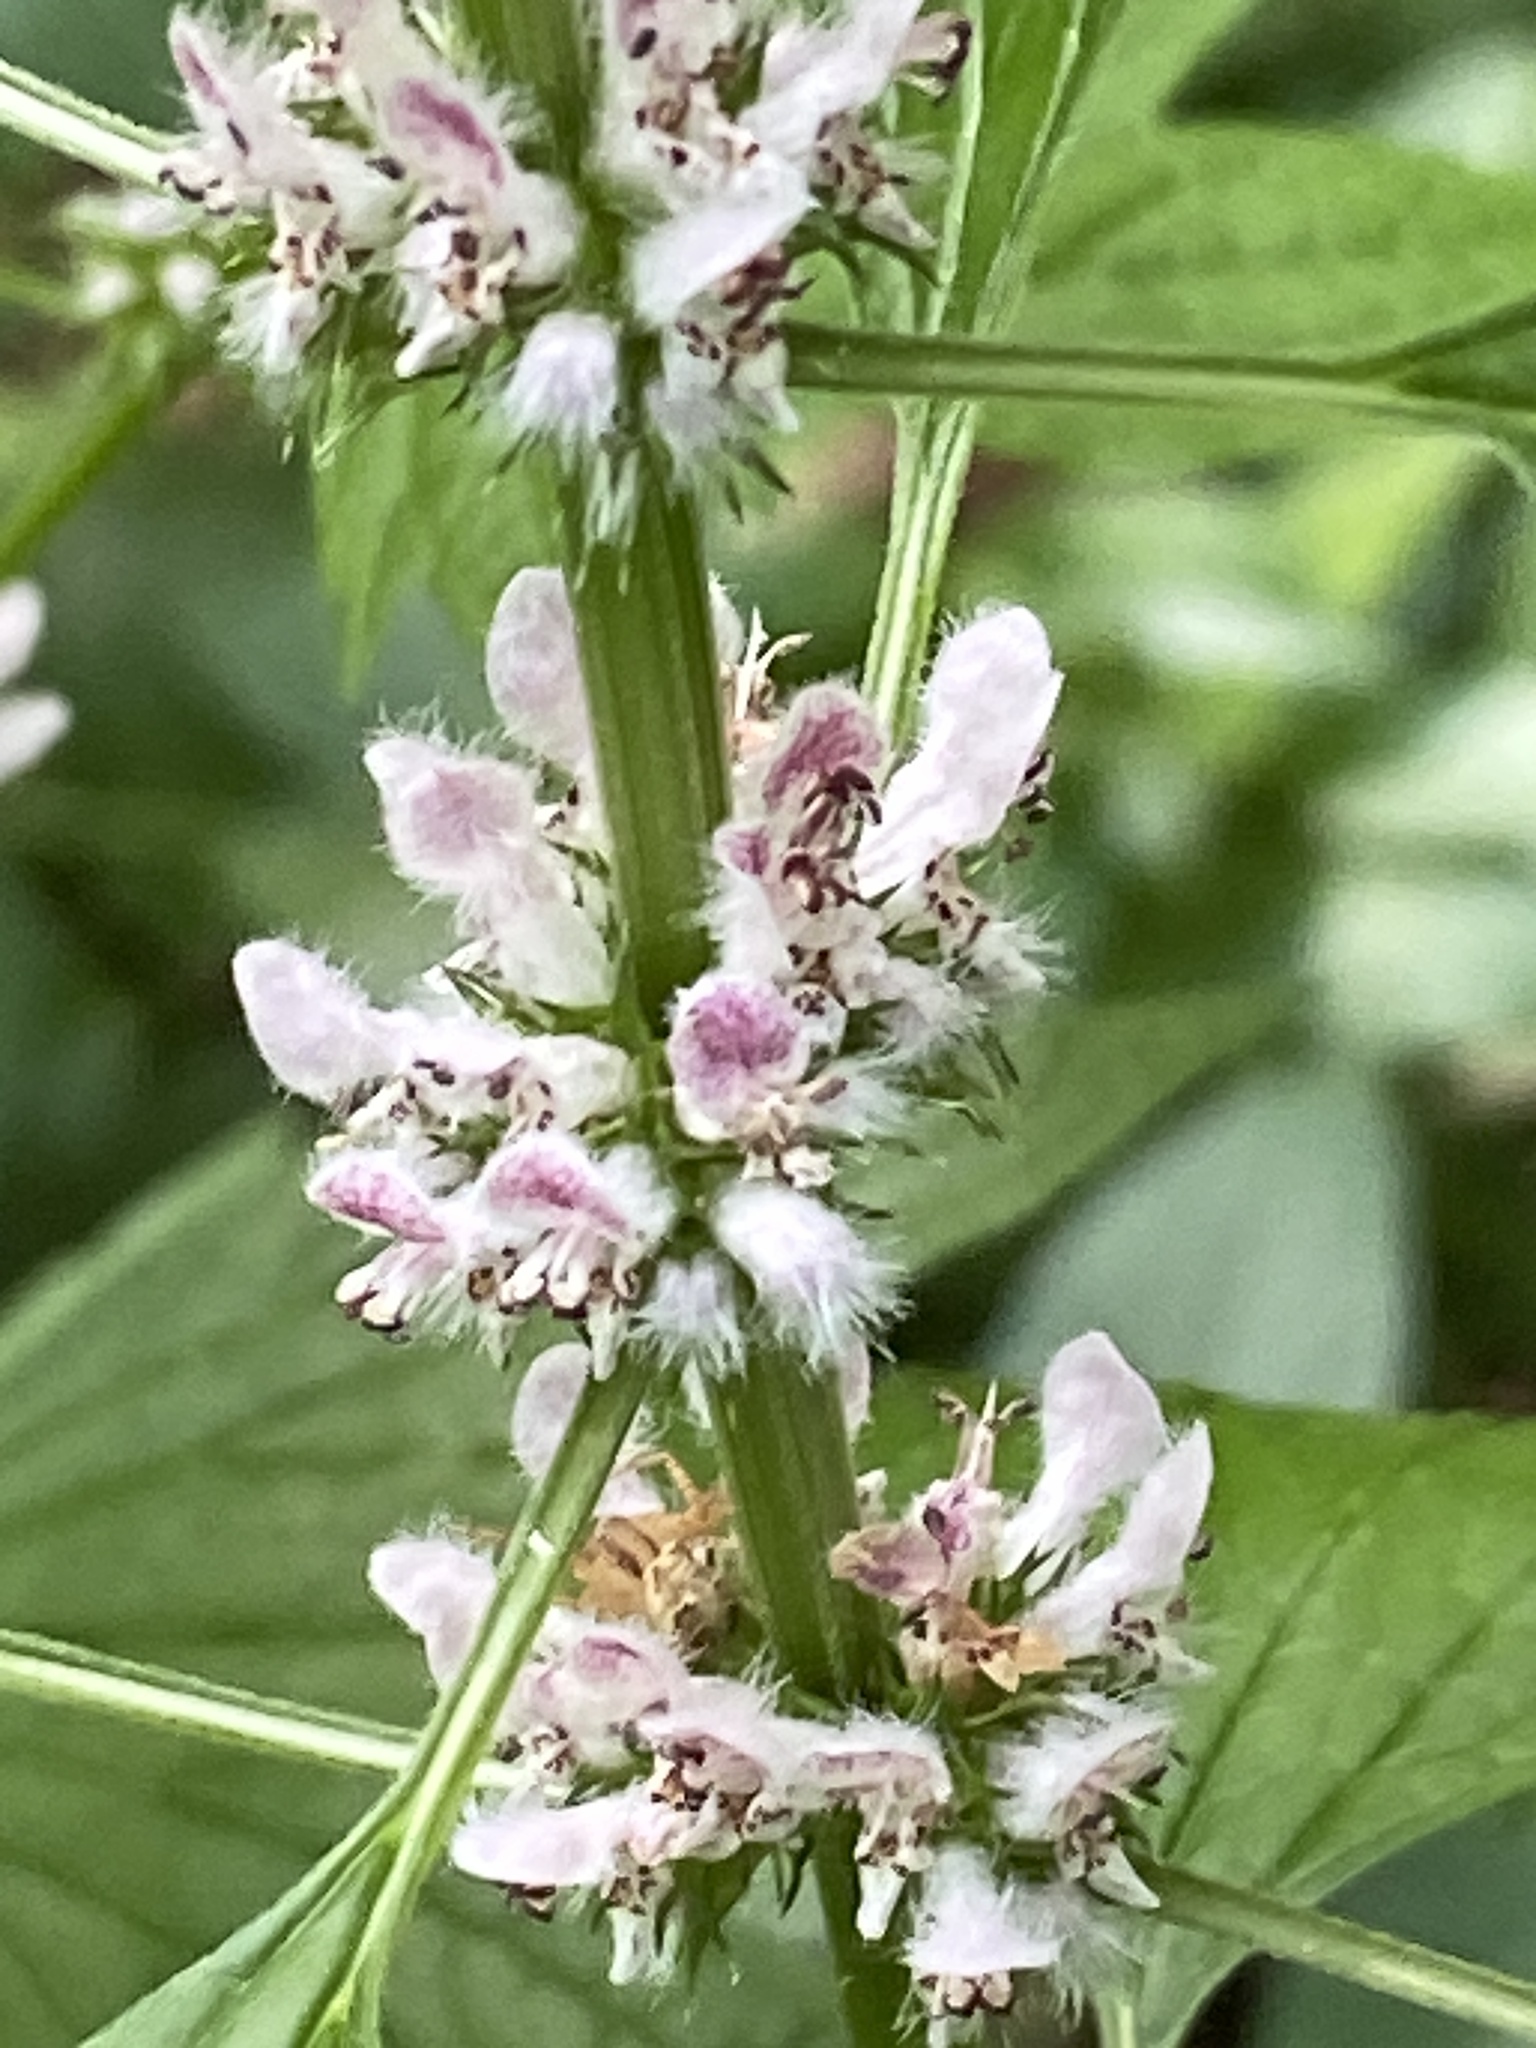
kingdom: Plantae
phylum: Tracheophyta
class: Magnoliopsida
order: Lamiales
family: Lamiaceae
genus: Leonurus
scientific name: Leonurus cardiaca
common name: Motherwort
